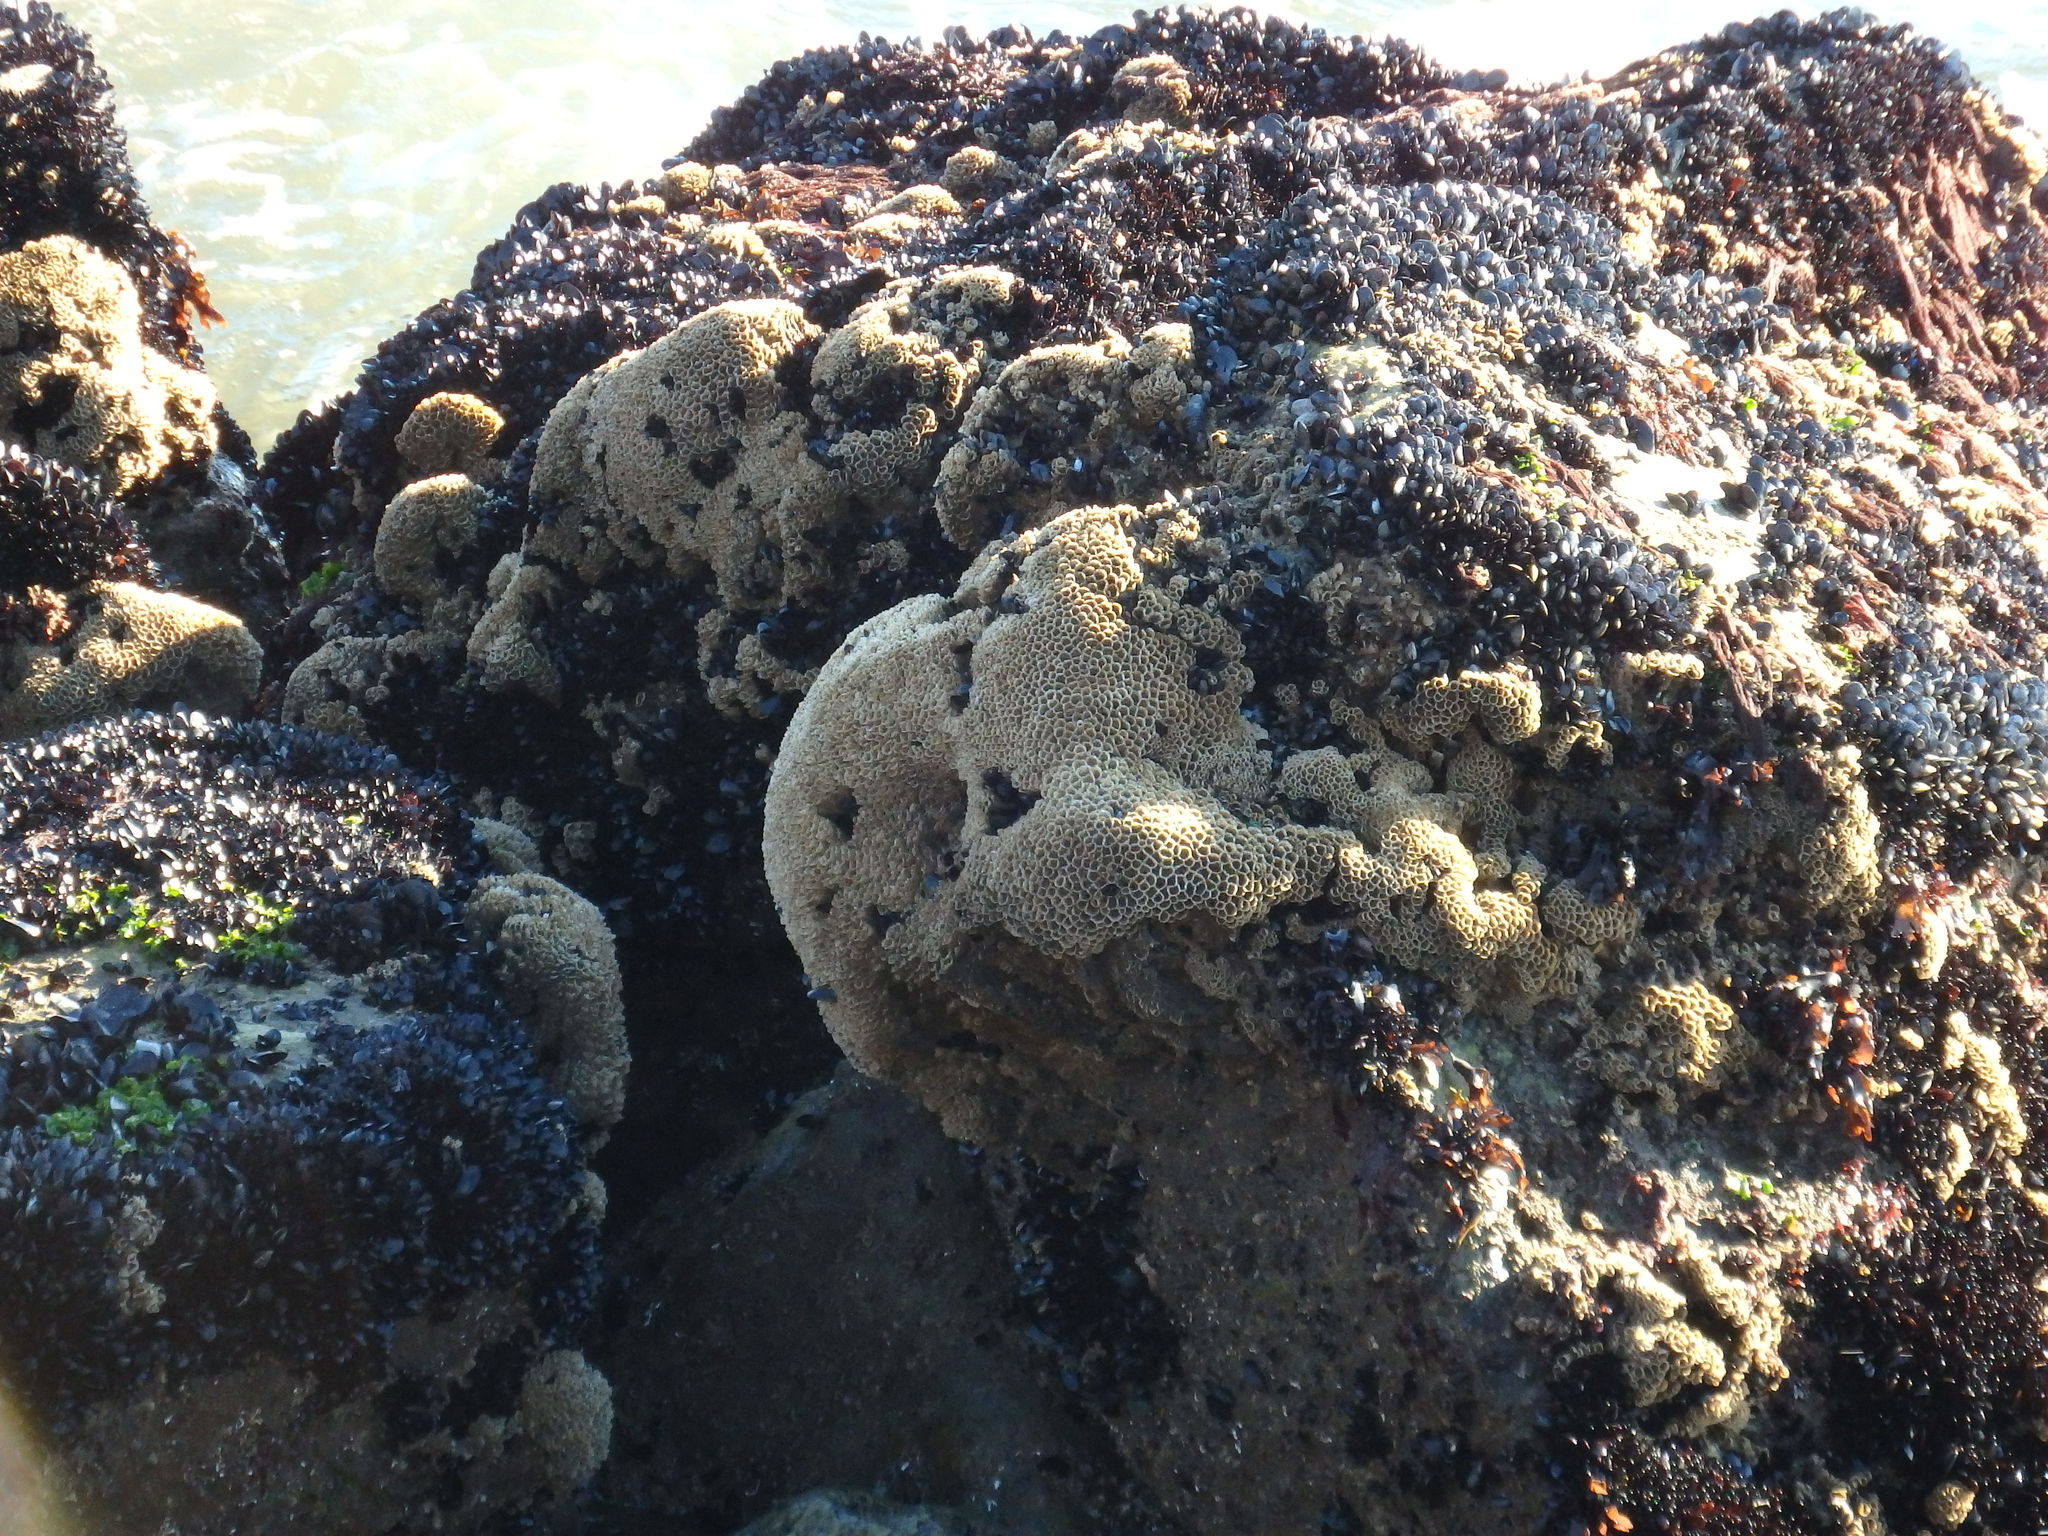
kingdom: Animalia
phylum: Annelida
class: Polychaeta
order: Sabellida
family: Sabellariidae
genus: Sabellaria
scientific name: Sabellaria alveolata
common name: Honeycomb worm
